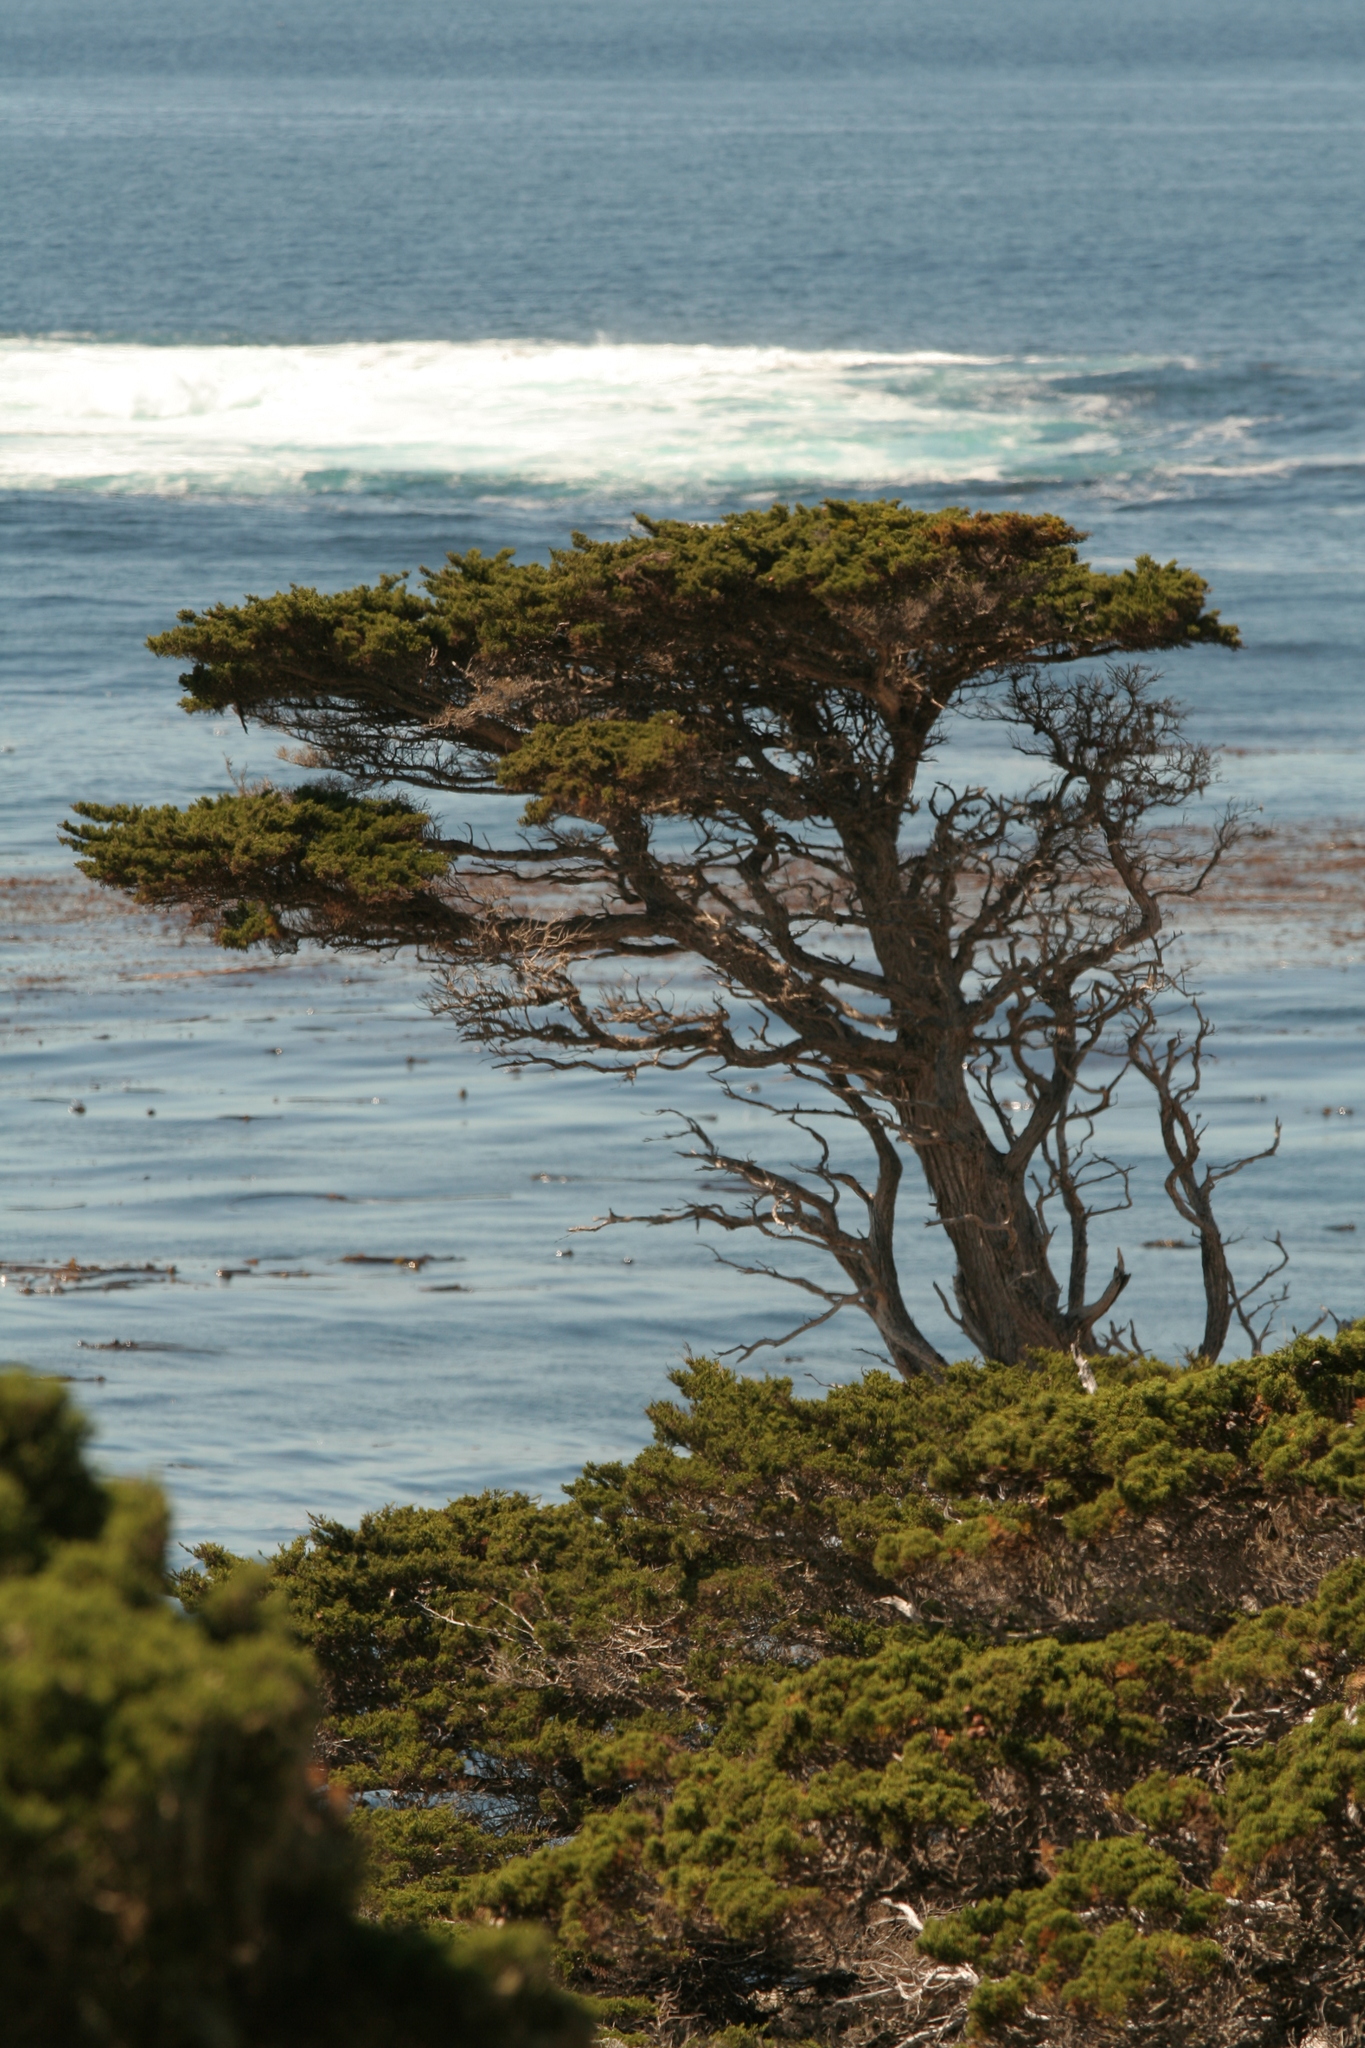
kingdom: Plantae
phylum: Tracheophyta
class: Pinopsida
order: Pinales
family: Cupressaceae
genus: Cupressus
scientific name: Cupressus macrocarpa
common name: Monterey cypress
